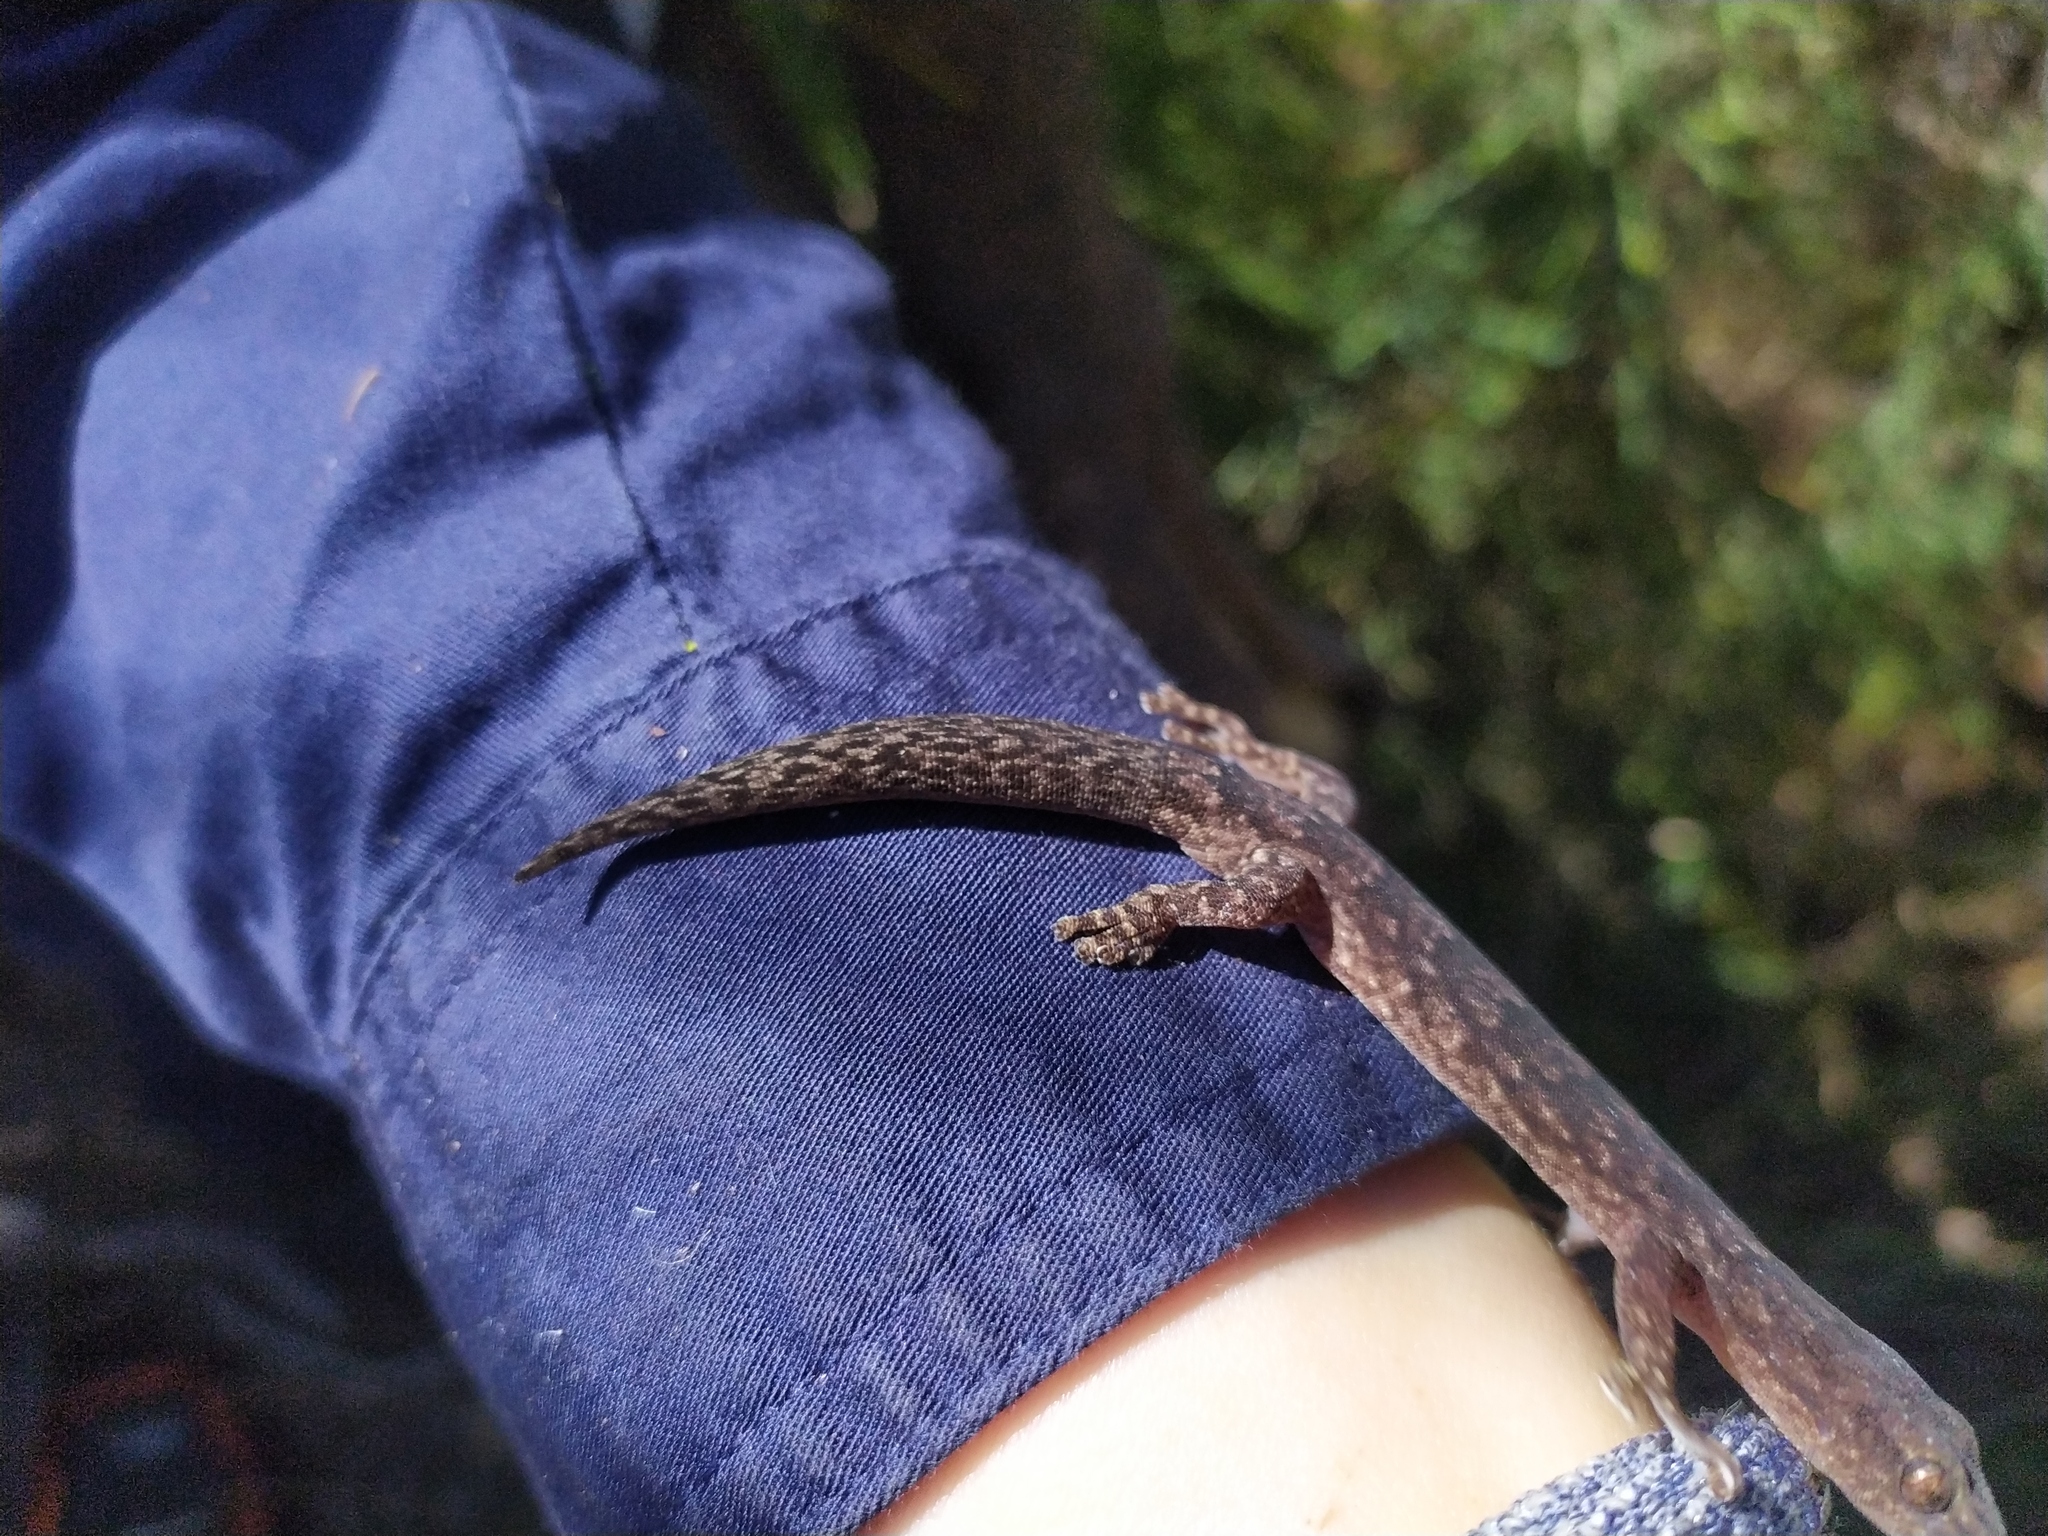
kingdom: Animalia
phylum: Chordata
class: Squamata
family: Gekkonidae
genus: Christinus
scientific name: Christinus marmoratus
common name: Marbled gecko
